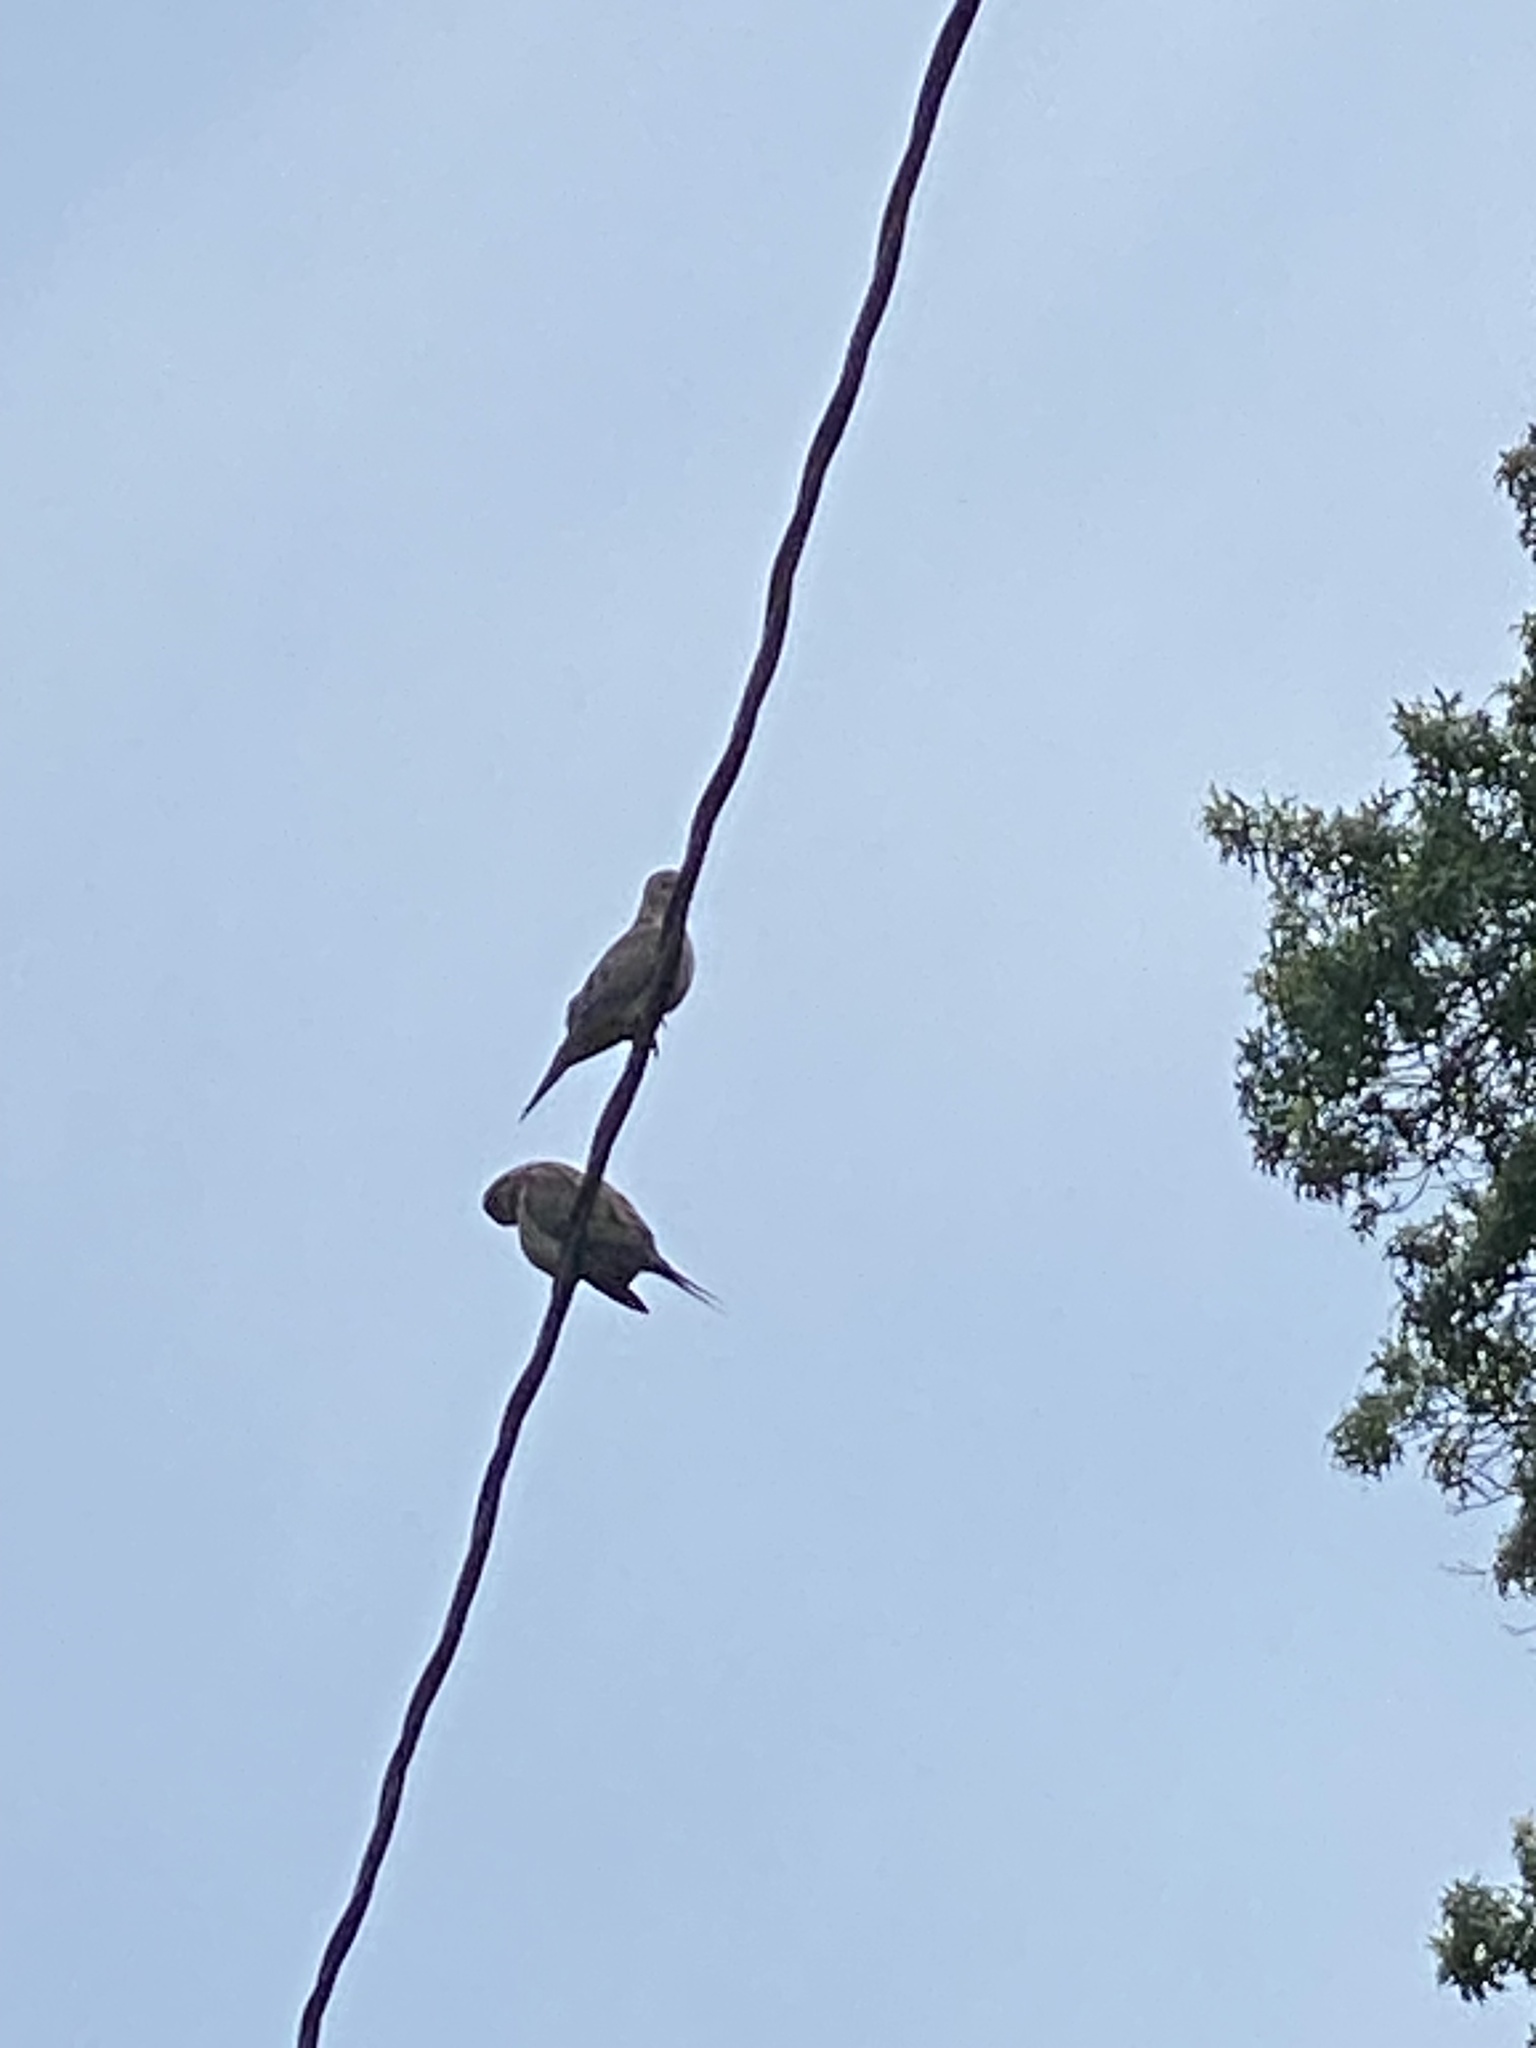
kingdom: Animalia
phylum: Chordata
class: Aves
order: Columbiformes
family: Columbidae
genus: Zenaida
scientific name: Zenaida macroura
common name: Mourning dove
